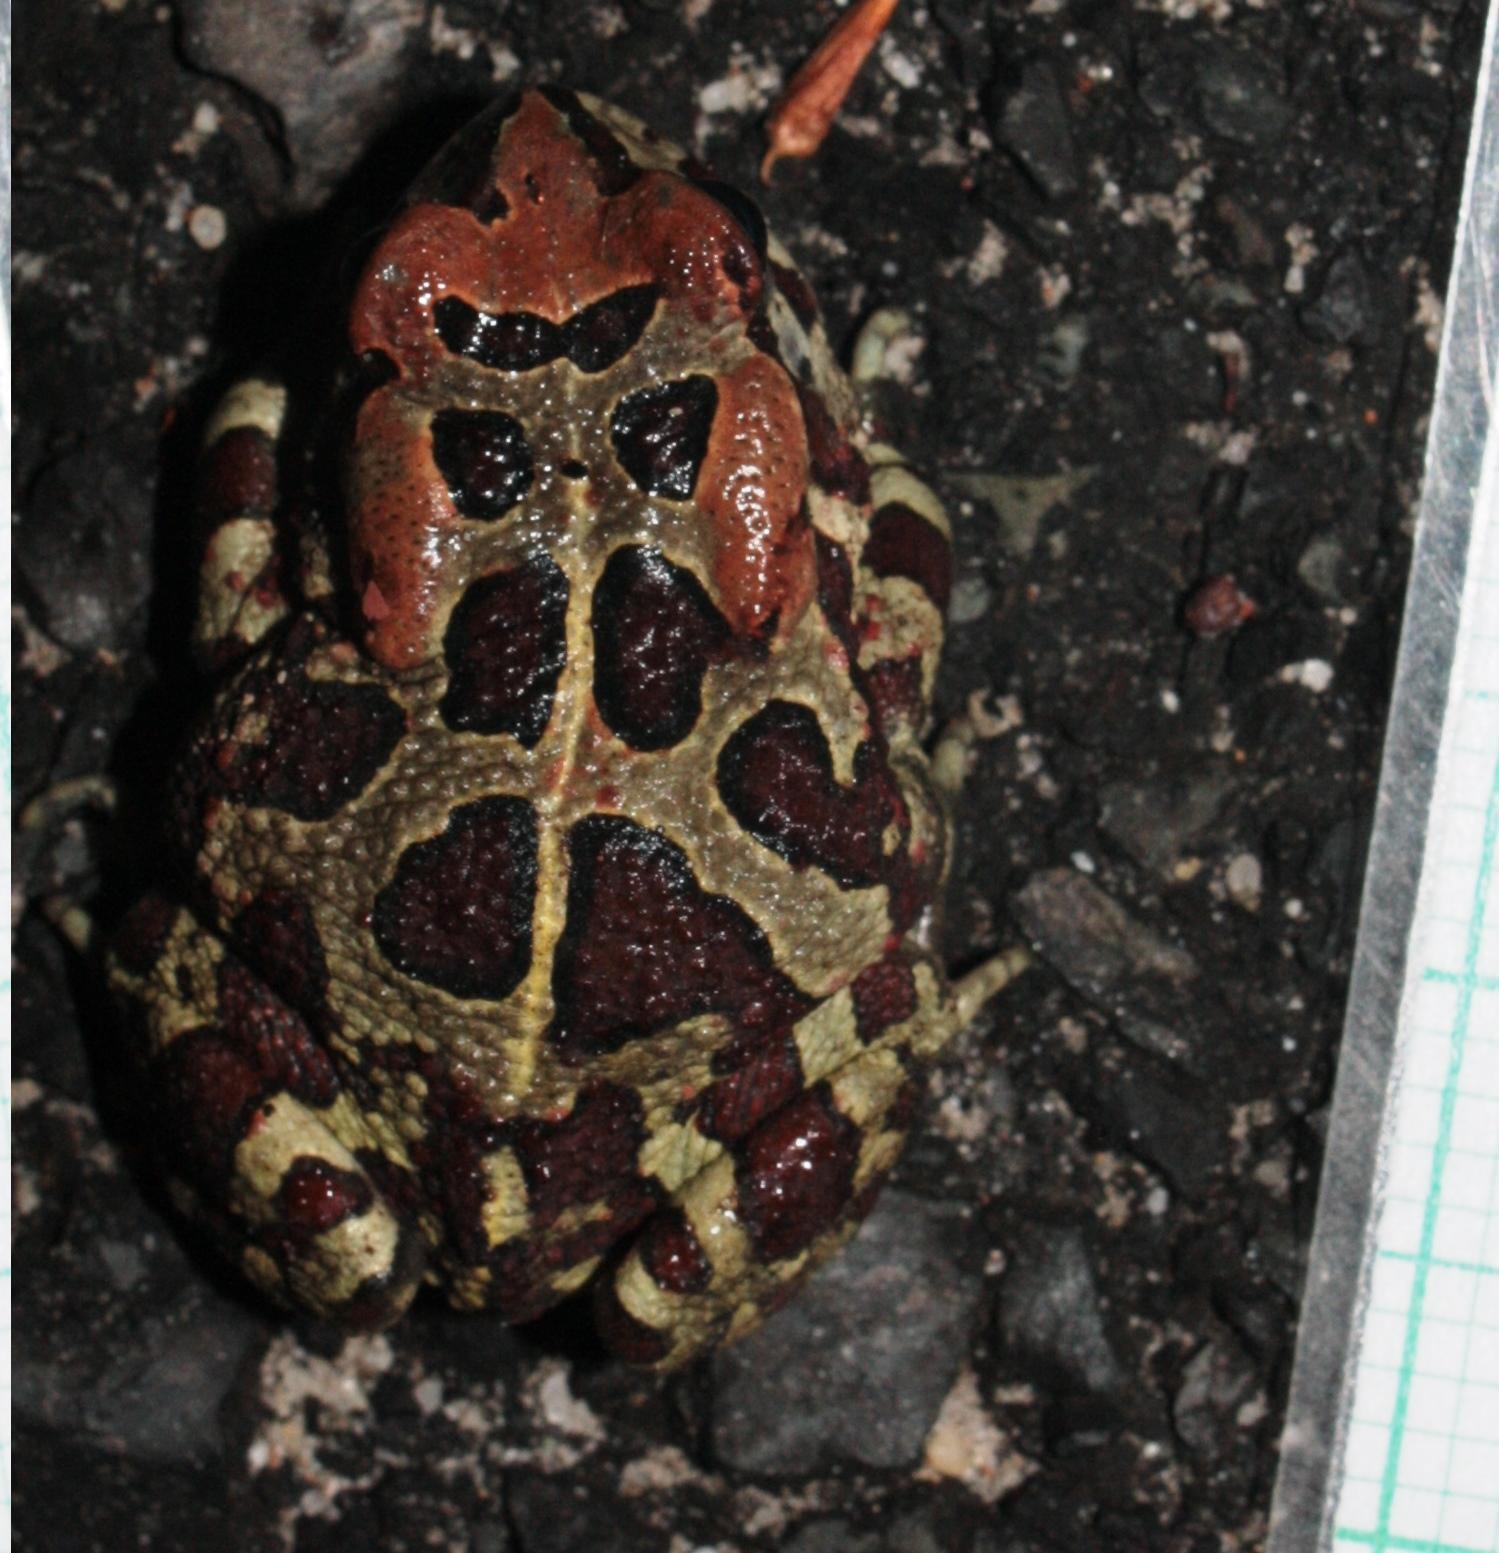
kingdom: Animalia
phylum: Chordata
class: Amphibia
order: Anura
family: Bufonidae
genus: Sclerophrys
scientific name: Sclerophrys pantherina
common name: Panther toad
